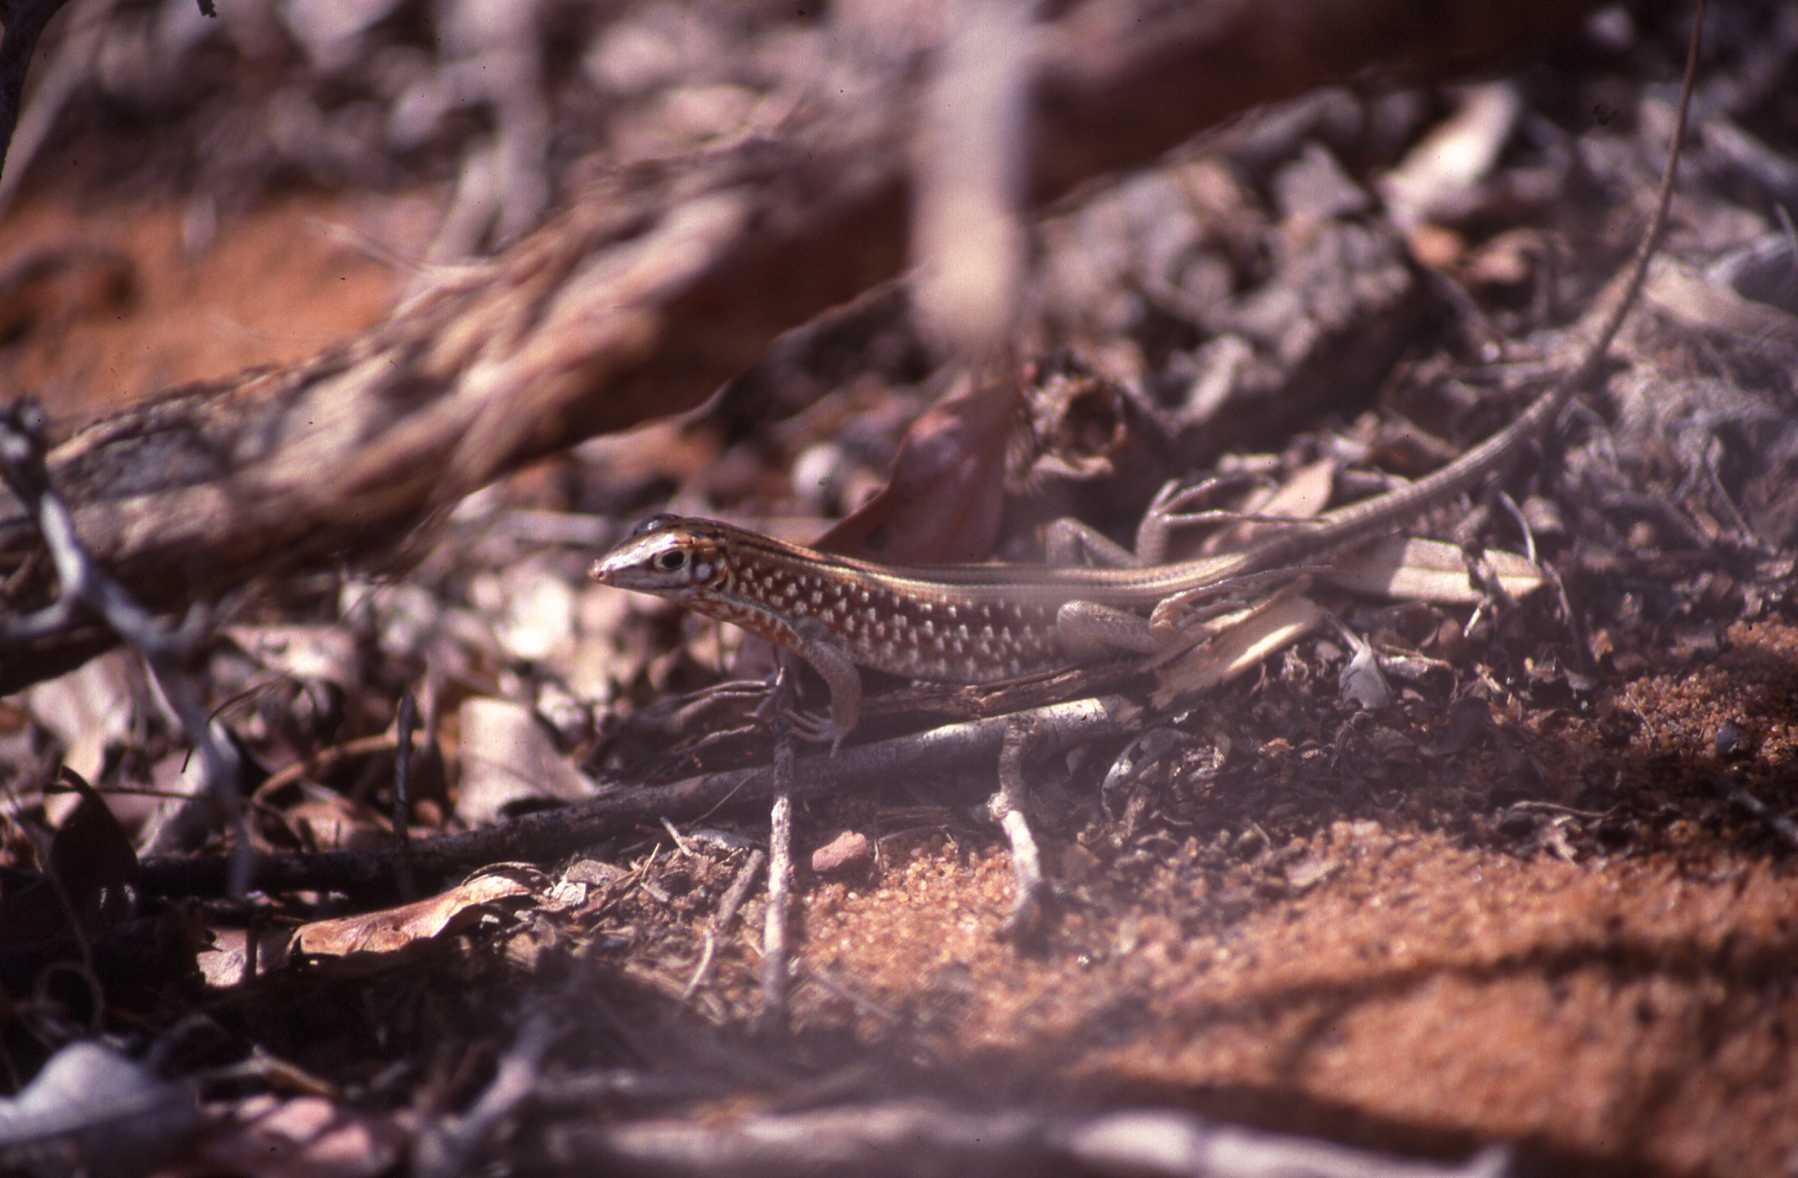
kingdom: Animalia
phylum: Chordata
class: Squamata
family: Gerrhosauridae
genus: Tracheloptychus
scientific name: Tracheloptychus petersi
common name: Peters' keeled cordylid
